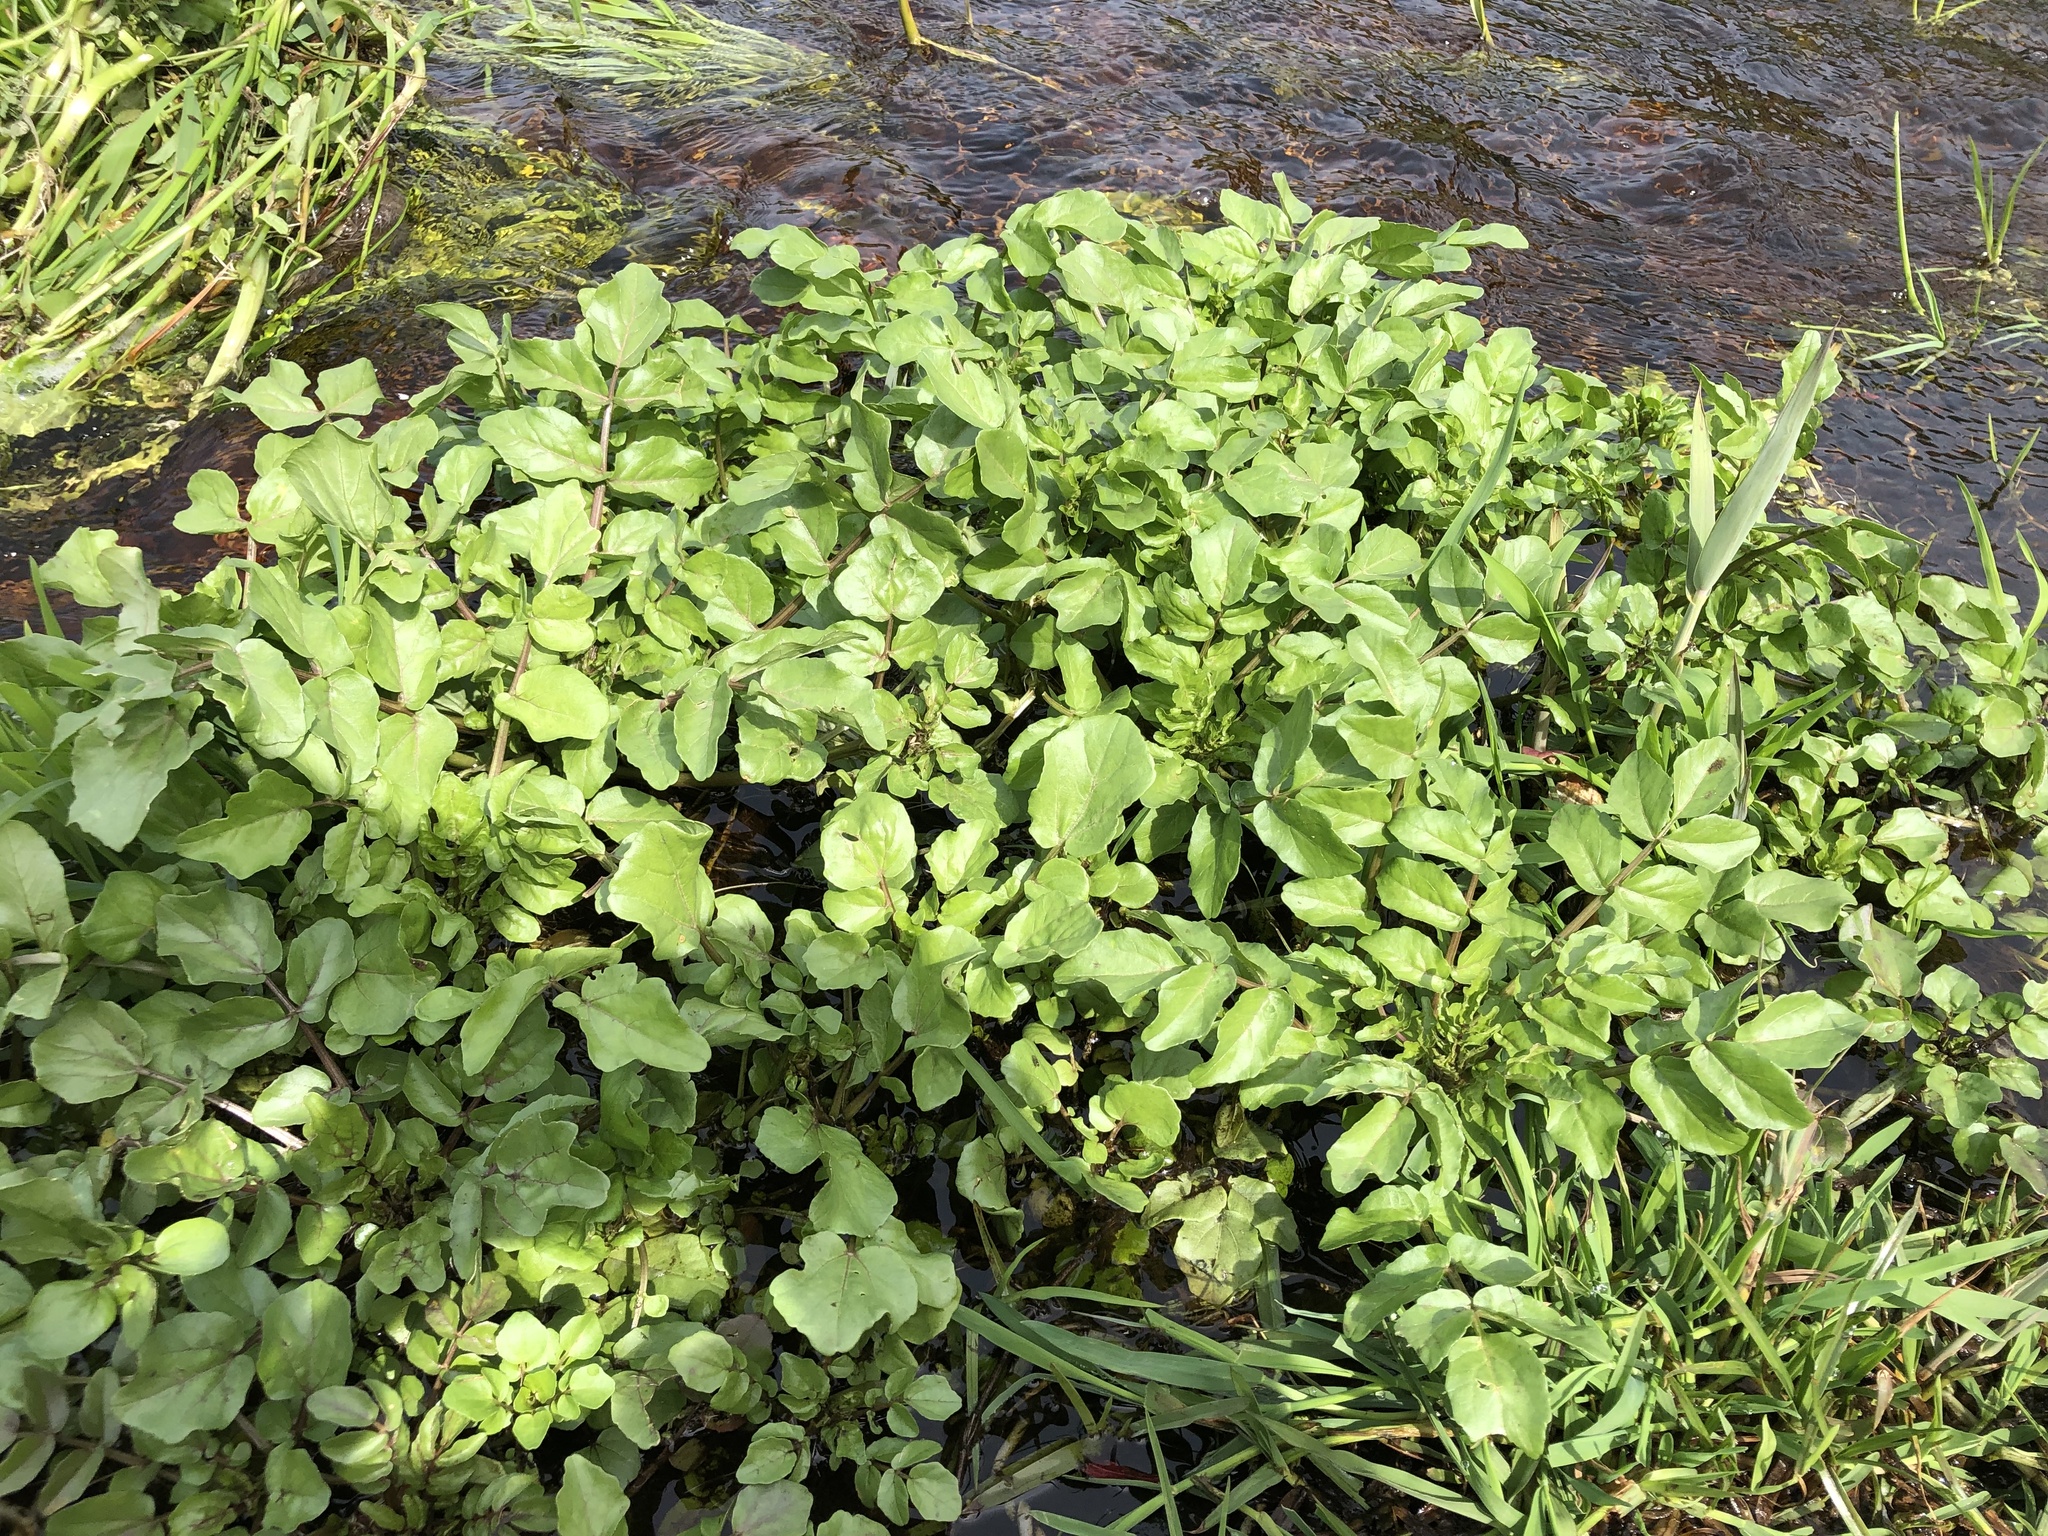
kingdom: Plantae
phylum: Tracheophyta
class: Magnoliopsida
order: Brassicales
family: Brassicaceae
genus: Nasturtium
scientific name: Nasturtium officinale
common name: Watercress
